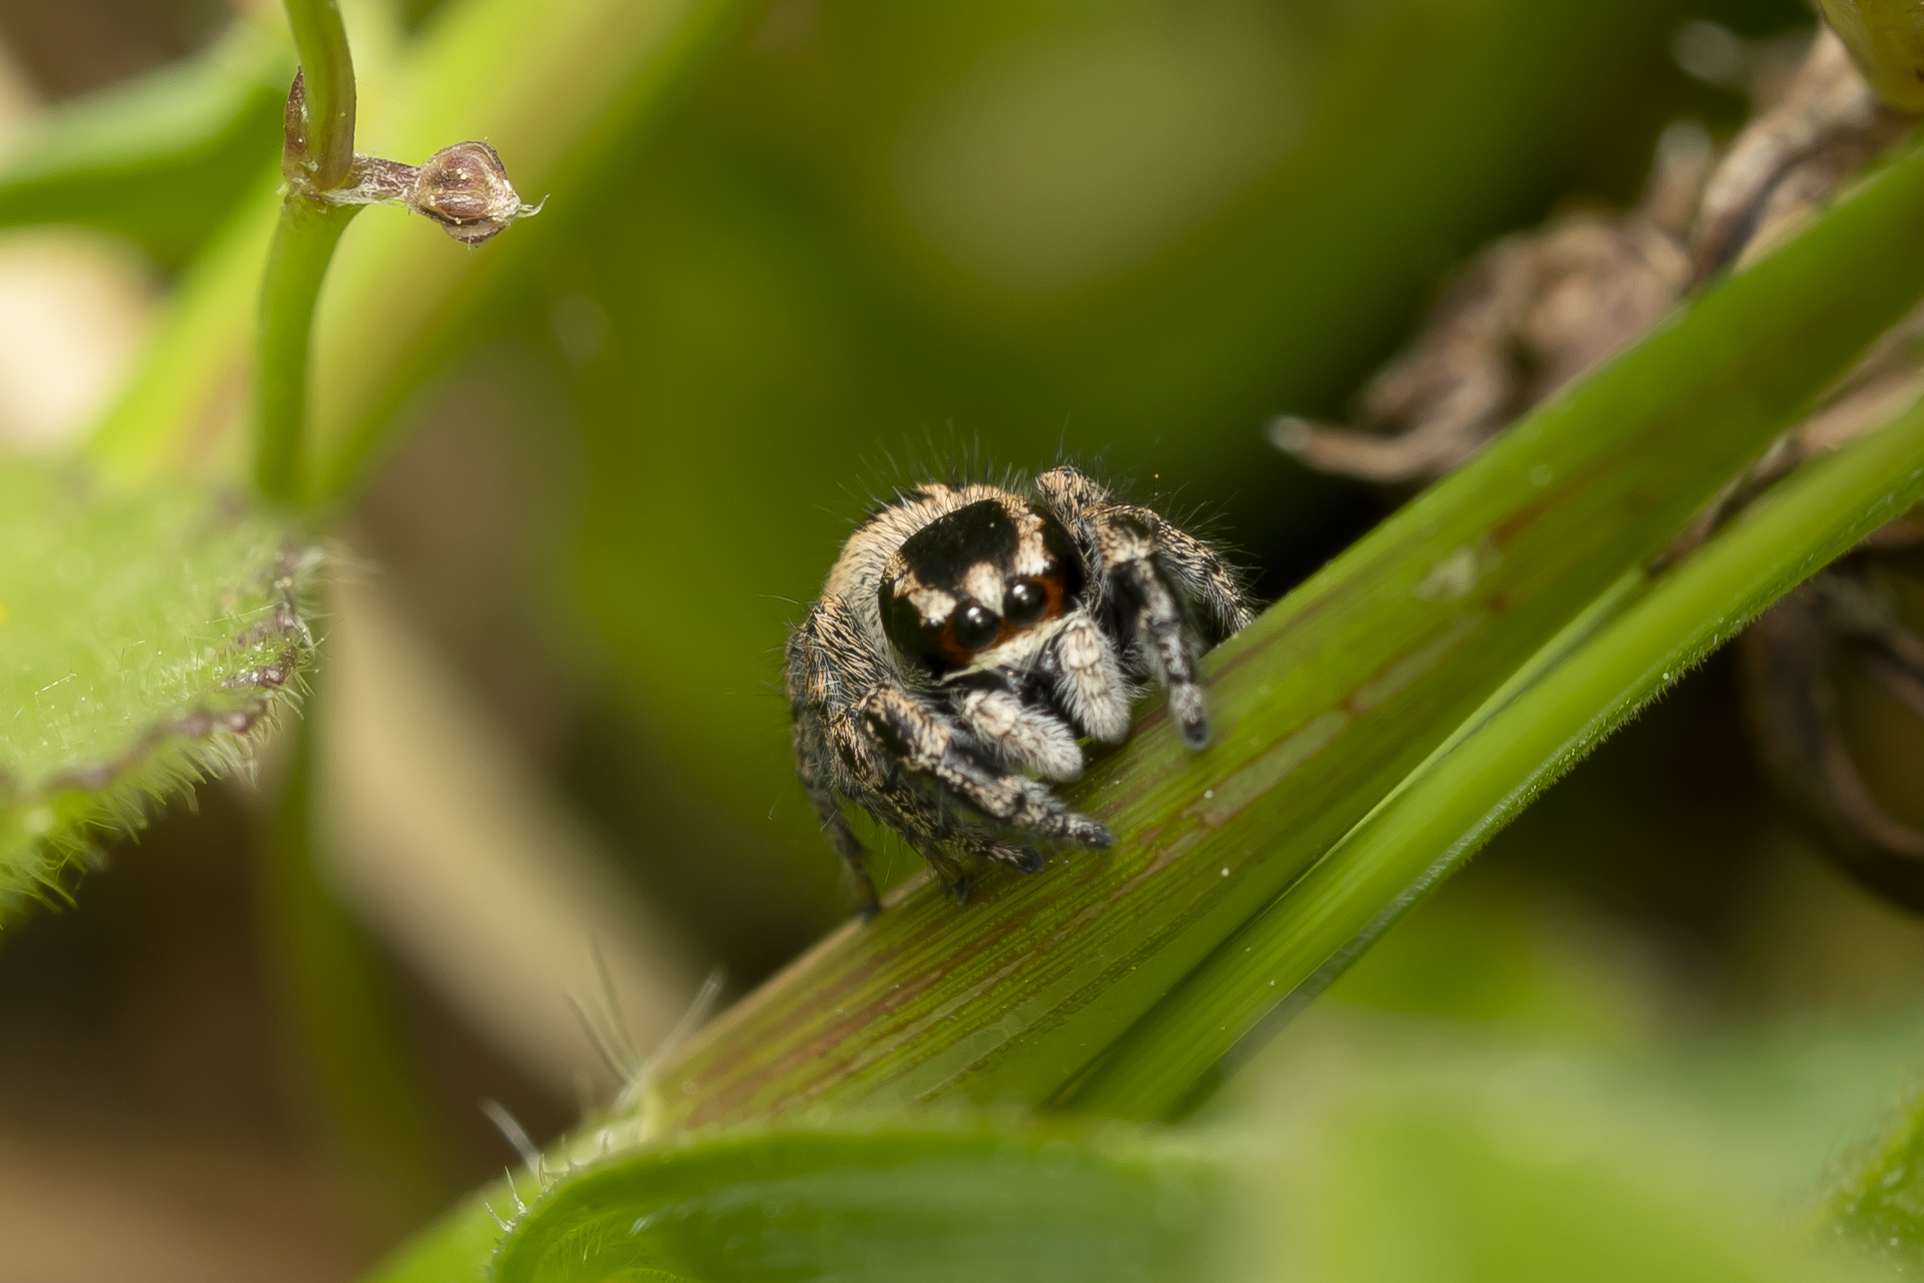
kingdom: Animalia
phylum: Arthropoda
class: Arachnida
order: Araneae
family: Salticidae
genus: Pellenes
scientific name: Pellenes diagonalis
